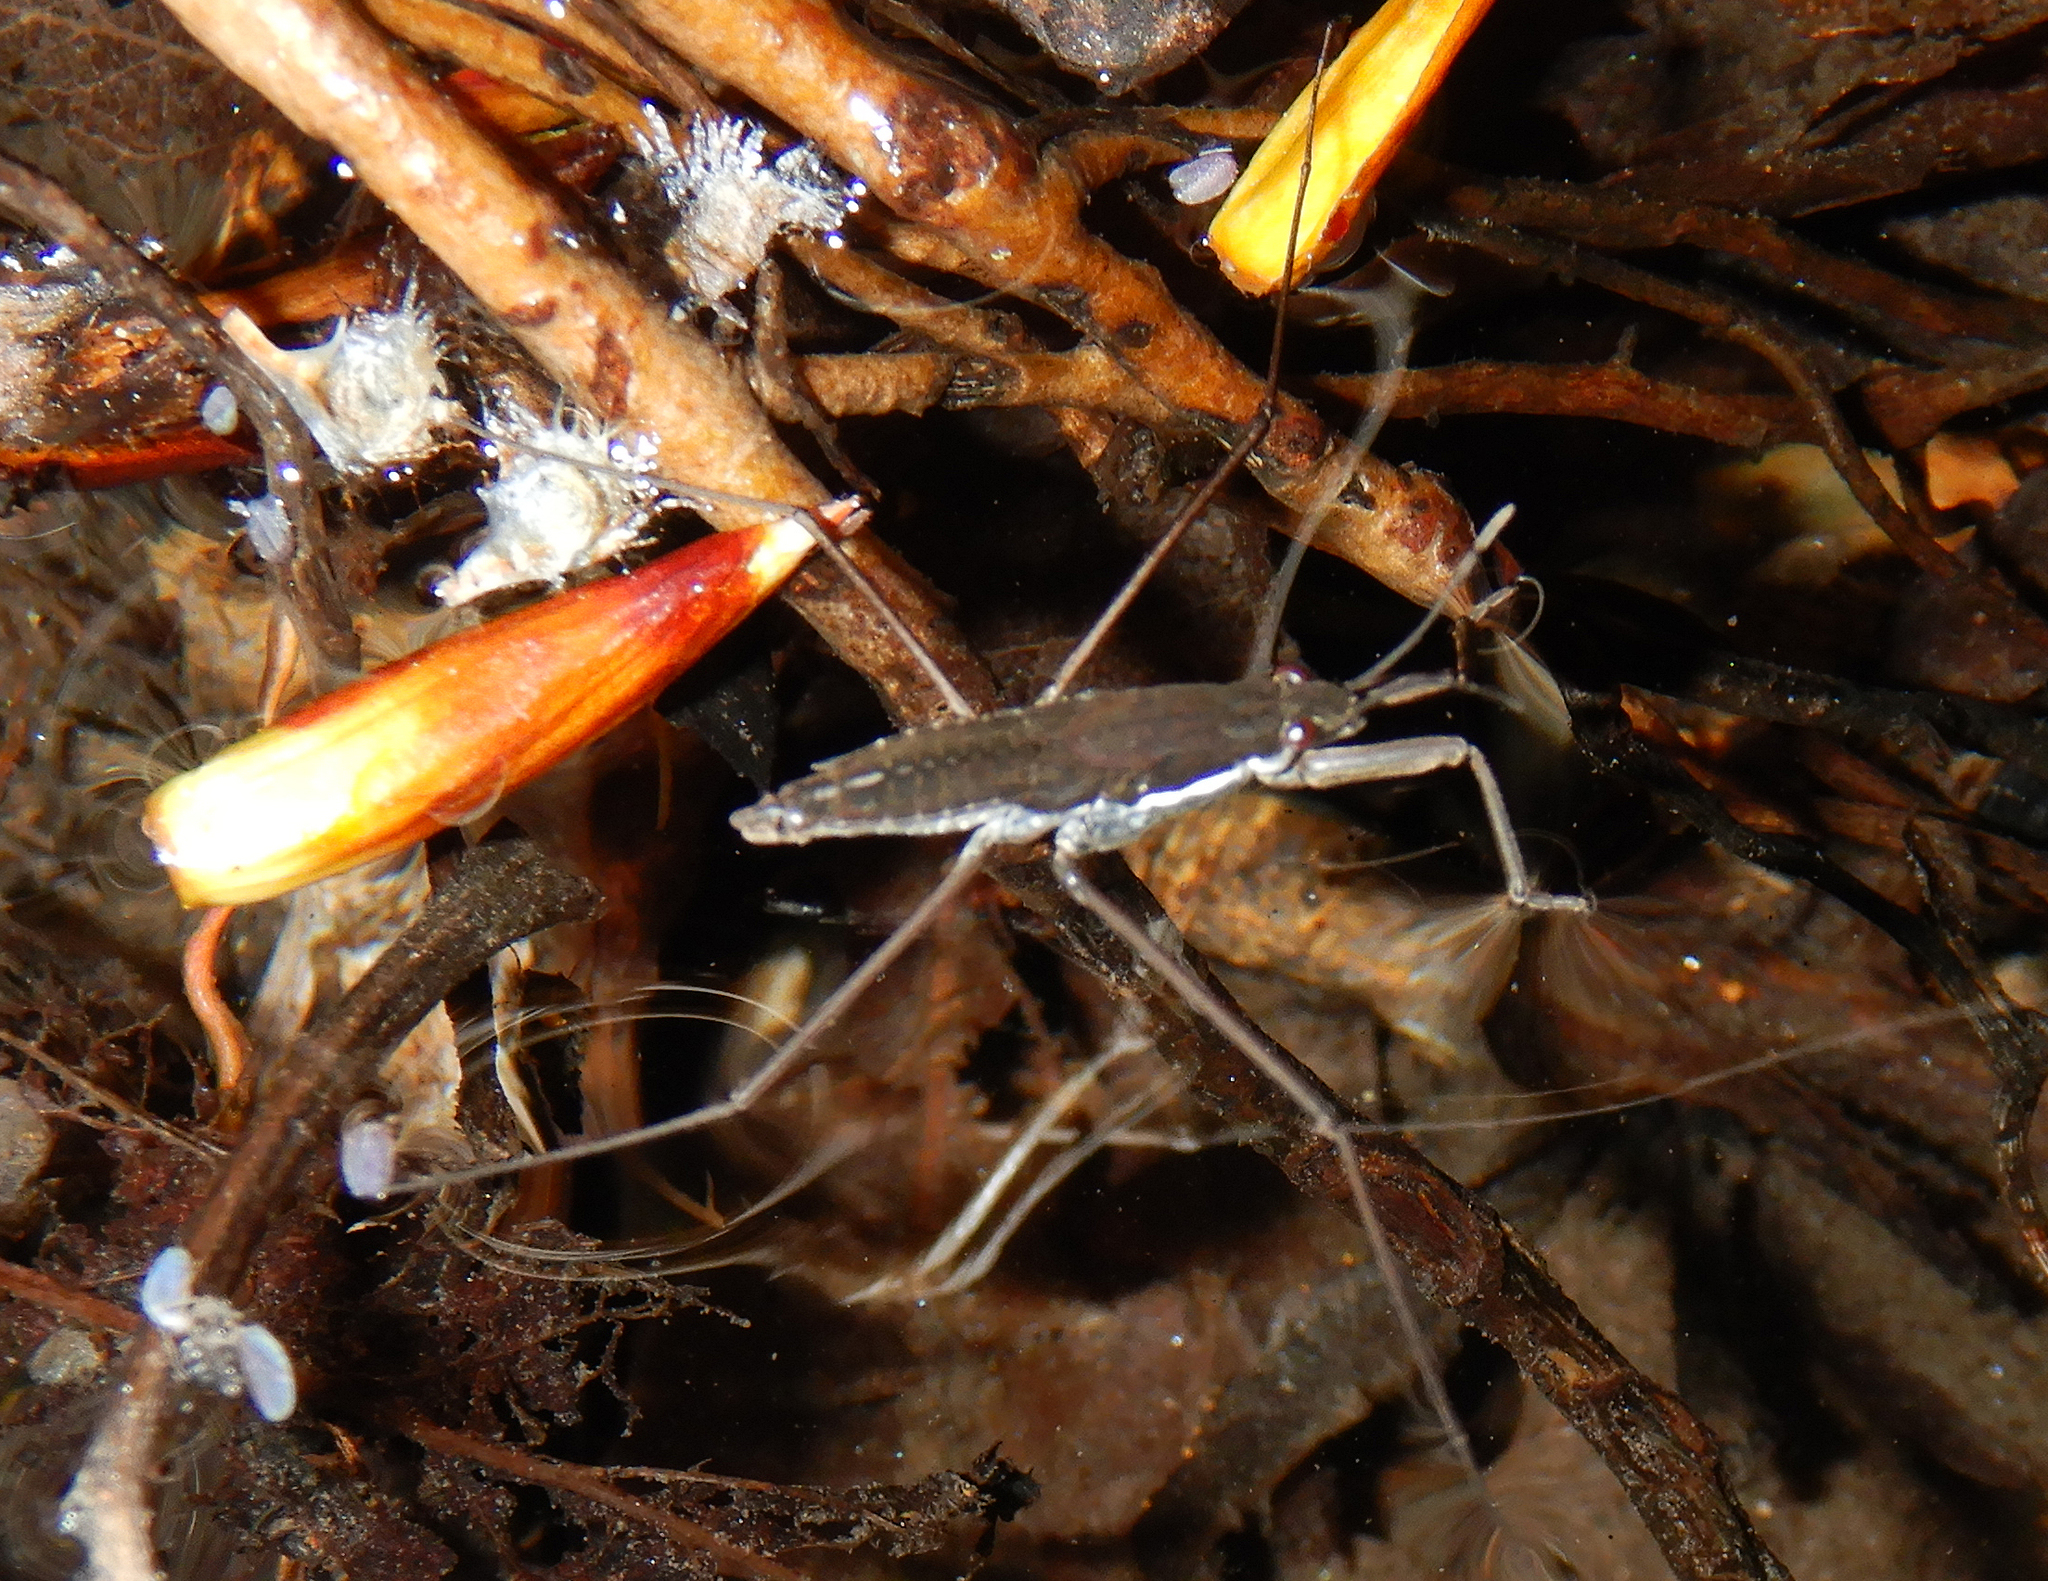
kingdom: Animalia
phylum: Arthropoda
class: Insecta
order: Hemiptera
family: Gerridae
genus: Aquarius
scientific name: Aquarius remigis
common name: Common water strider
